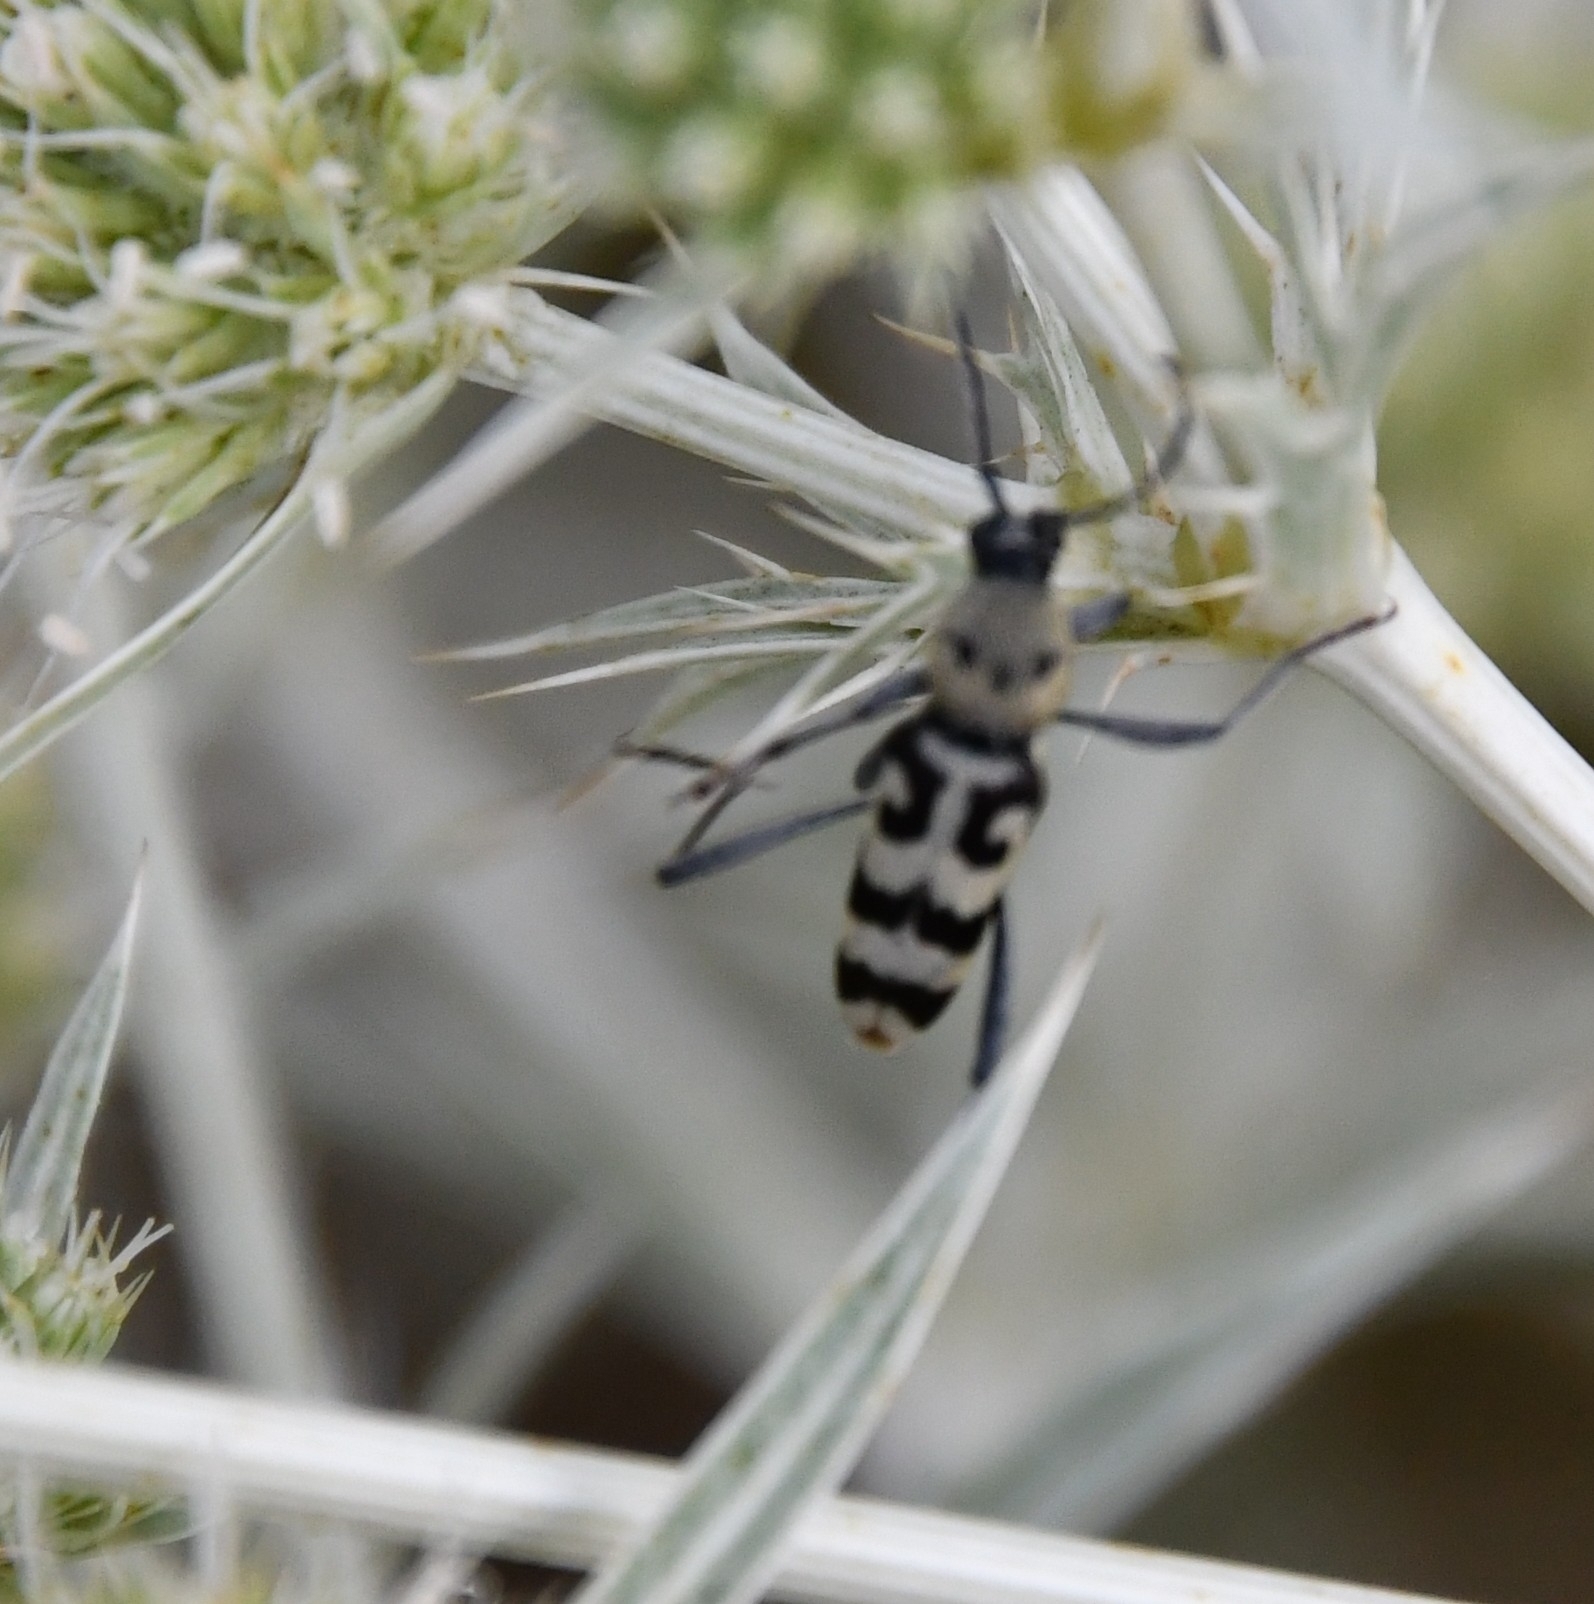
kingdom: Animalia
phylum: Arthropoda
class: Insecta
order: Coleoptera
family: Cerambycidae
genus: Chlorophorus
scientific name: Chlorophorus varius
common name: Grape wood borer
